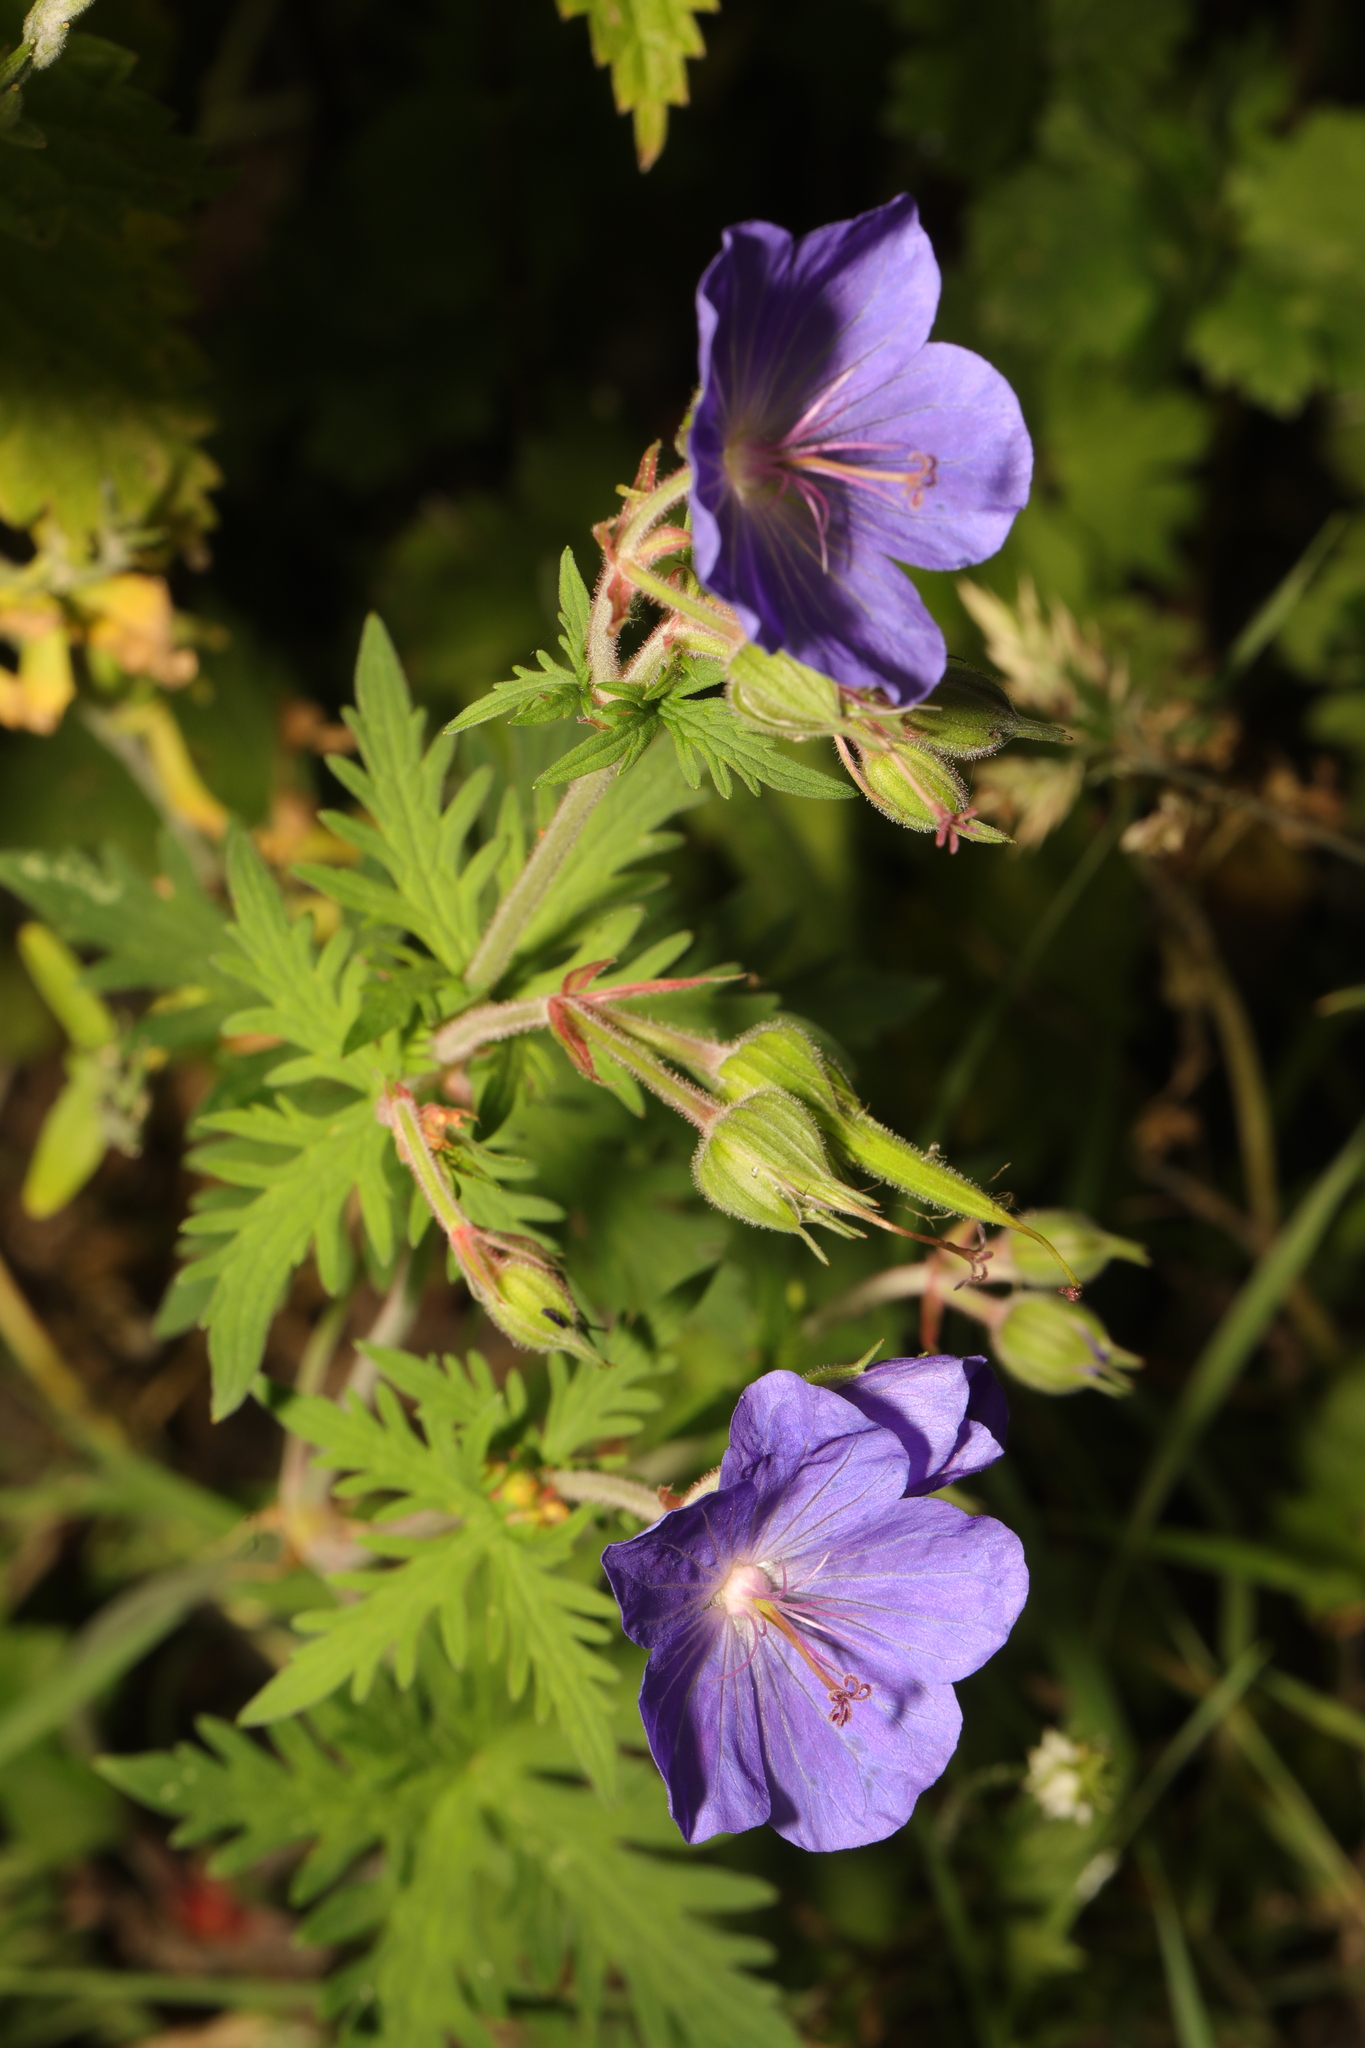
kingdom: Plantae
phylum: Tracheophyta
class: Magnoliopsida
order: Geraniales
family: Geraniaceae
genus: Geranium
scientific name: Geranium pratense
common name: Meadow crane's-bill
